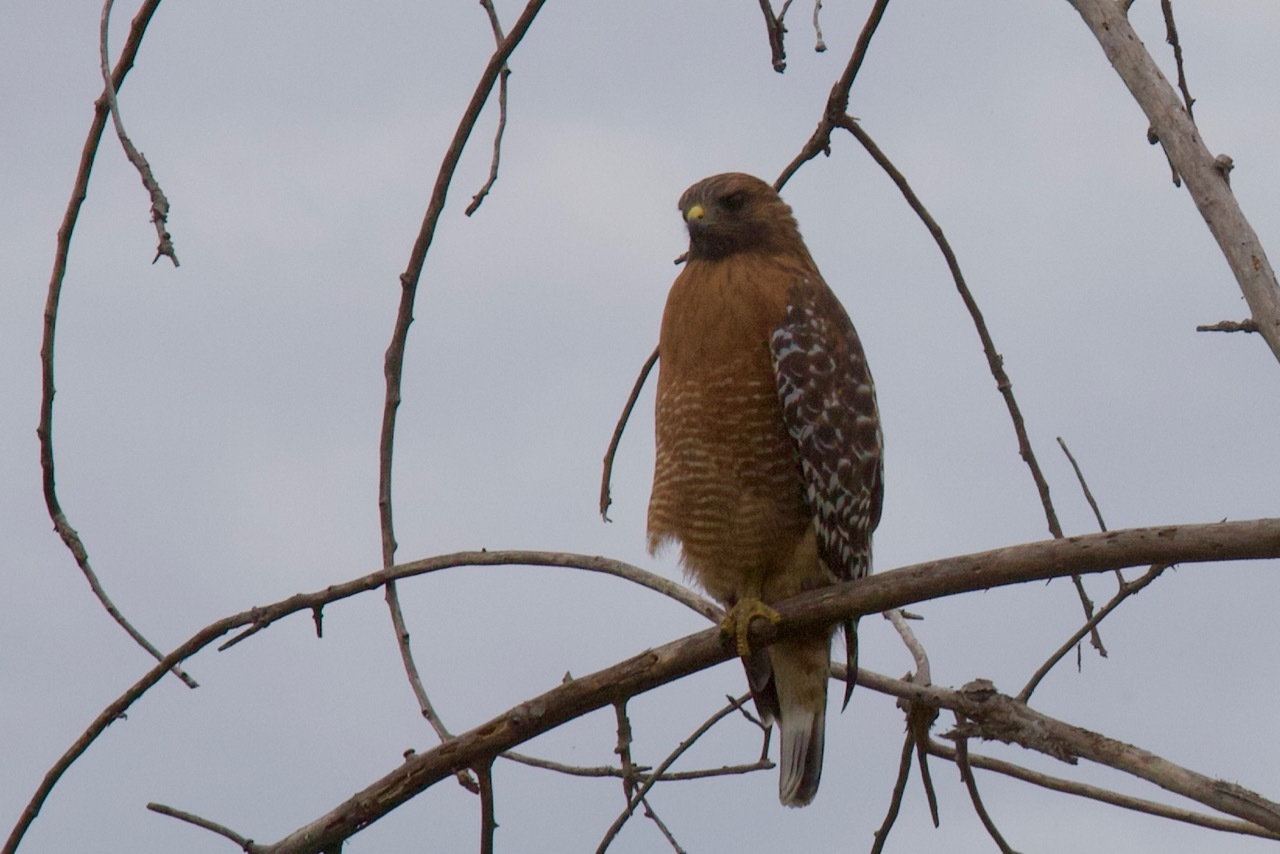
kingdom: Animalia
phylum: Chordata
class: Aves
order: Accipitriformes
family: Accipitridae
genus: Buteo
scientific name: Buteo lineatus
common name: Red-shouldered hawk
